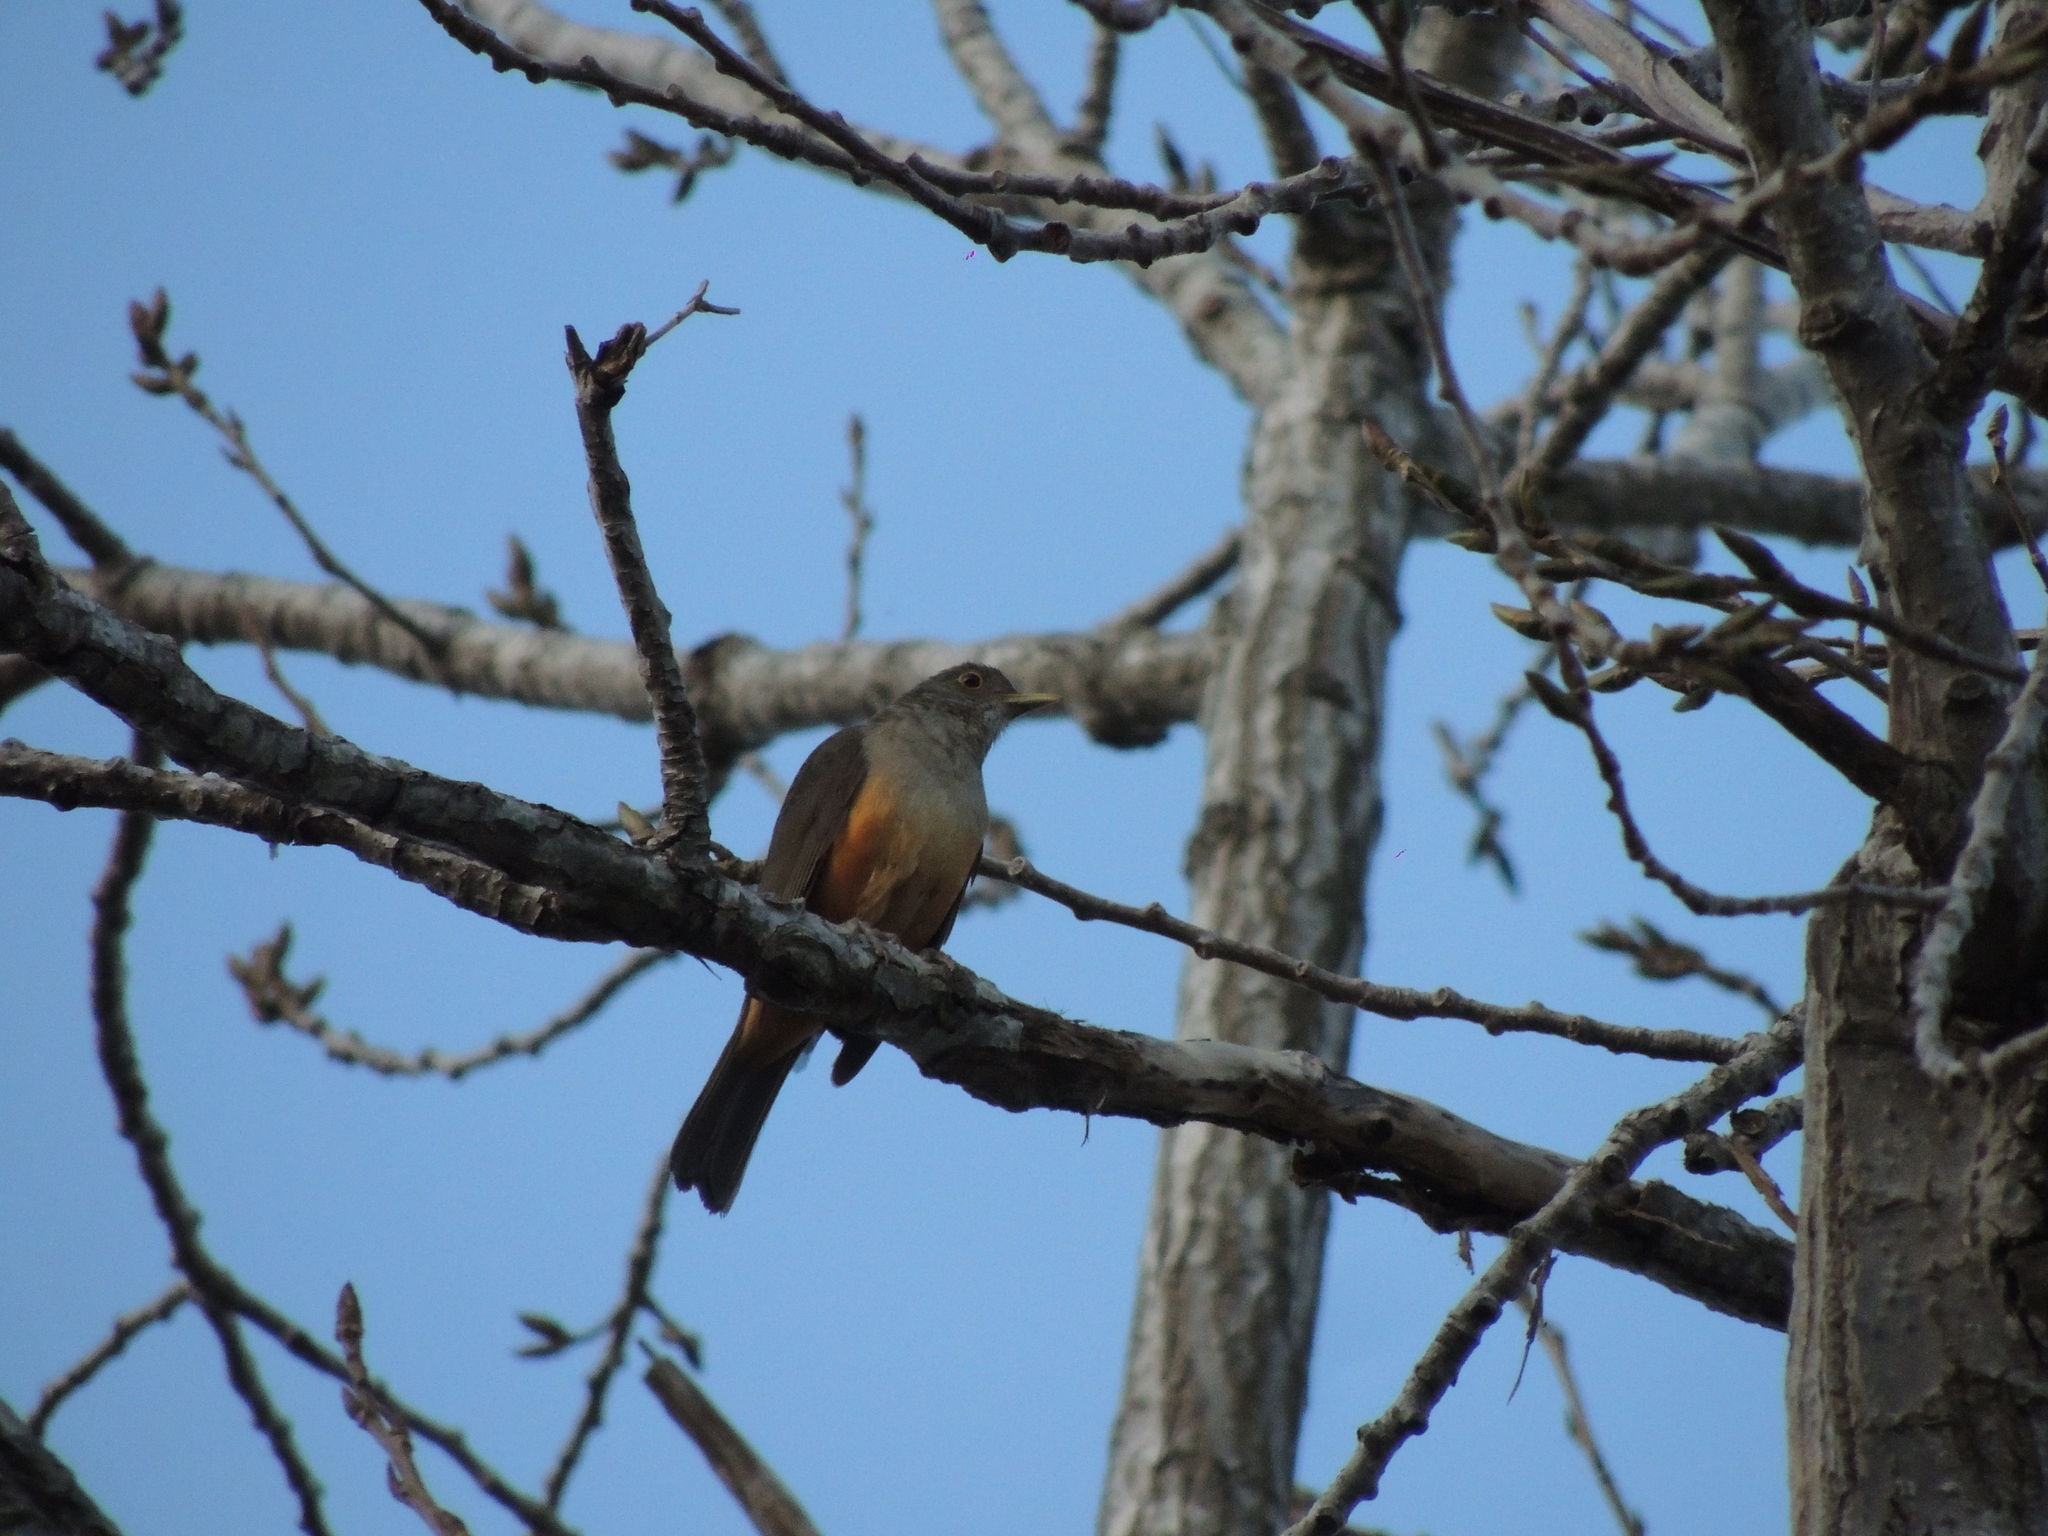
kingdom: Animalia
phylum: Chordata
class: Aves
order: Passeriformes
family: Turdidae
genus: Turdus
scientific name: Turdus rufiventris
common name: Rufous-bellied thrush
